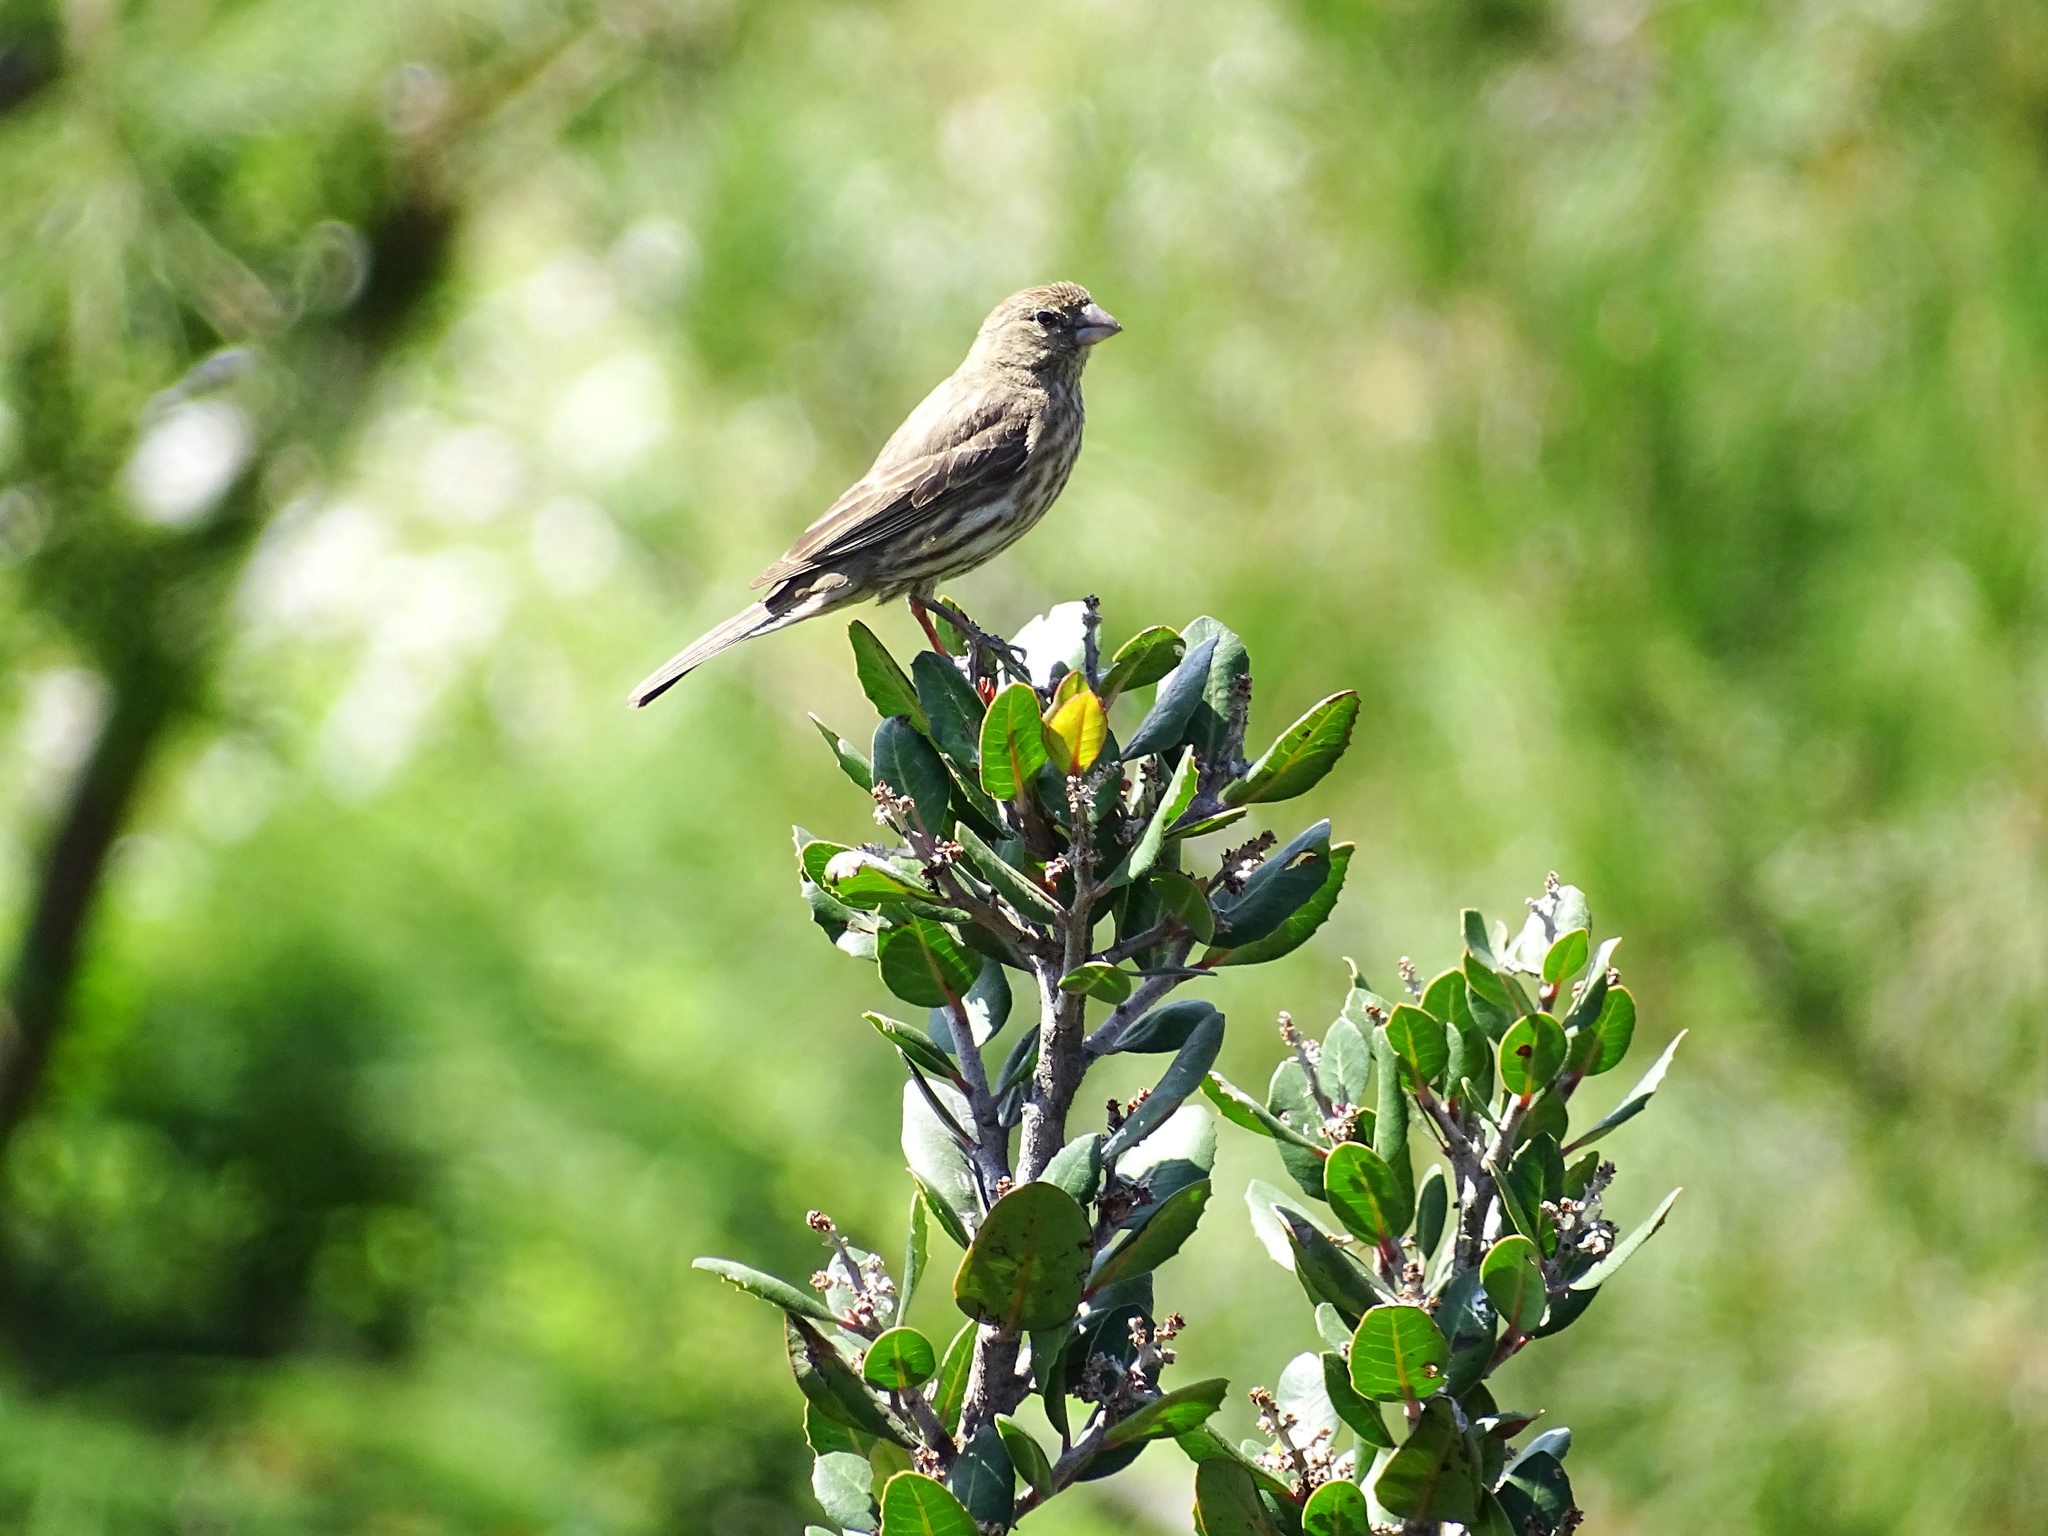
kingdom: Animalia
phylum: Chordata
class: Aves
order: Passeriformes
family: Fringillidae
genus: Haemorhous
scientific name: Haemorhous mexicanus
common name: House finch
